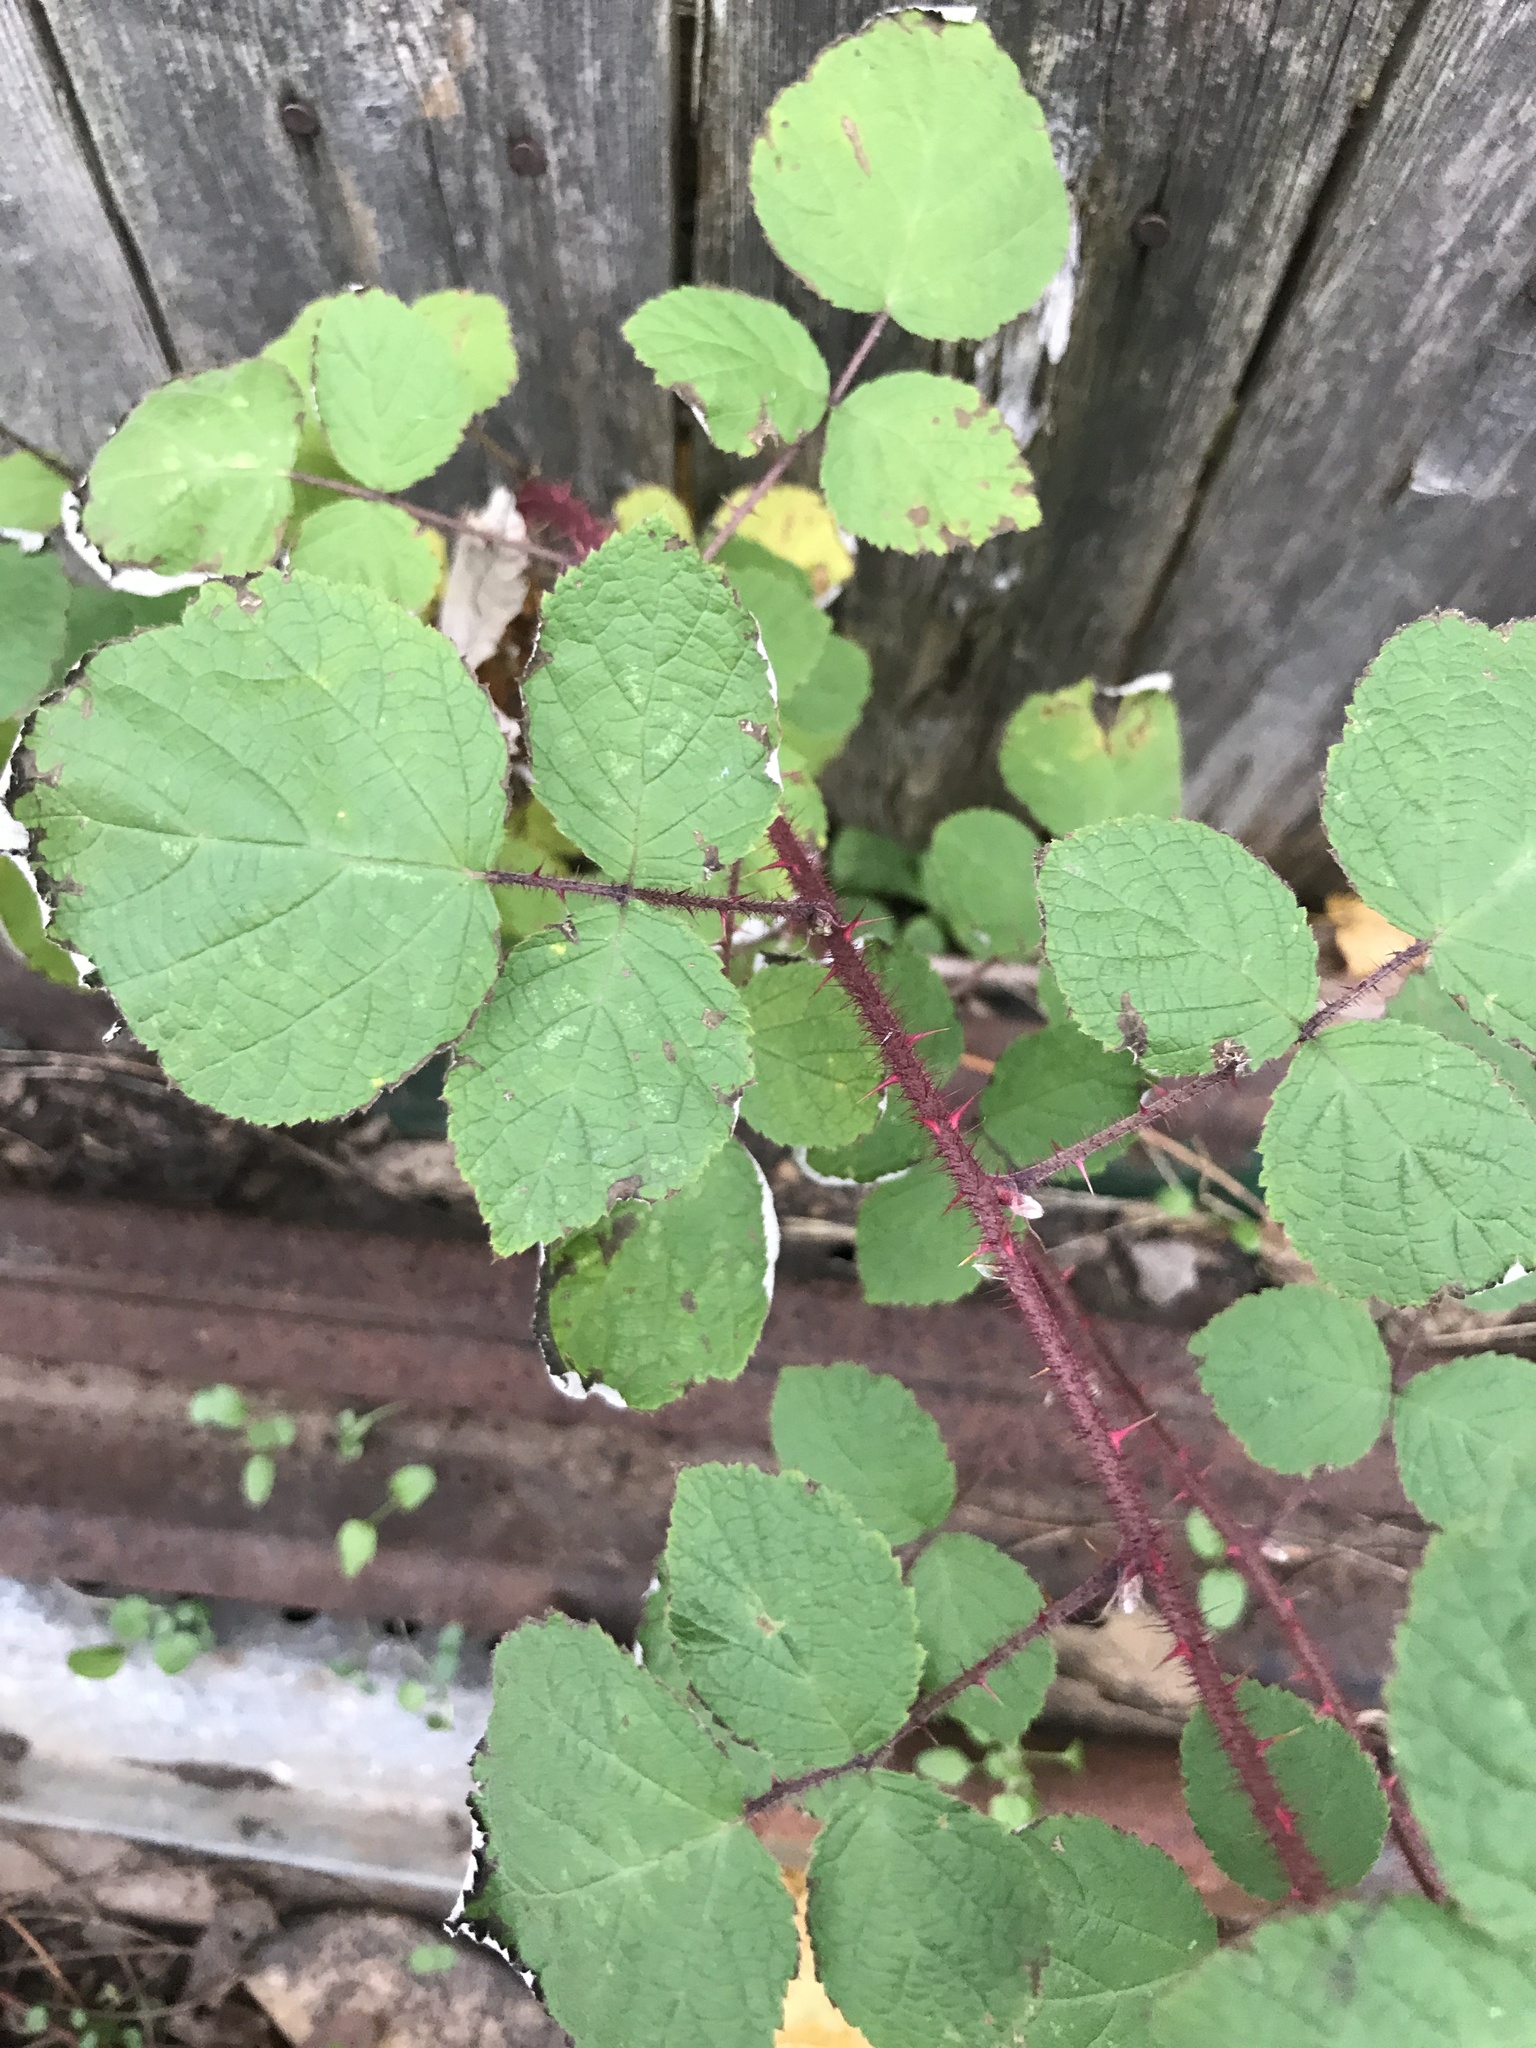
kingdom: Plantae
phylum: Tracheophyta
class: Magnoliopsida
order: Rosales
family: Rosaceae
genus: Rubus
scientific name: Rubus phoenicolasius
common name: Japanese wineberry
